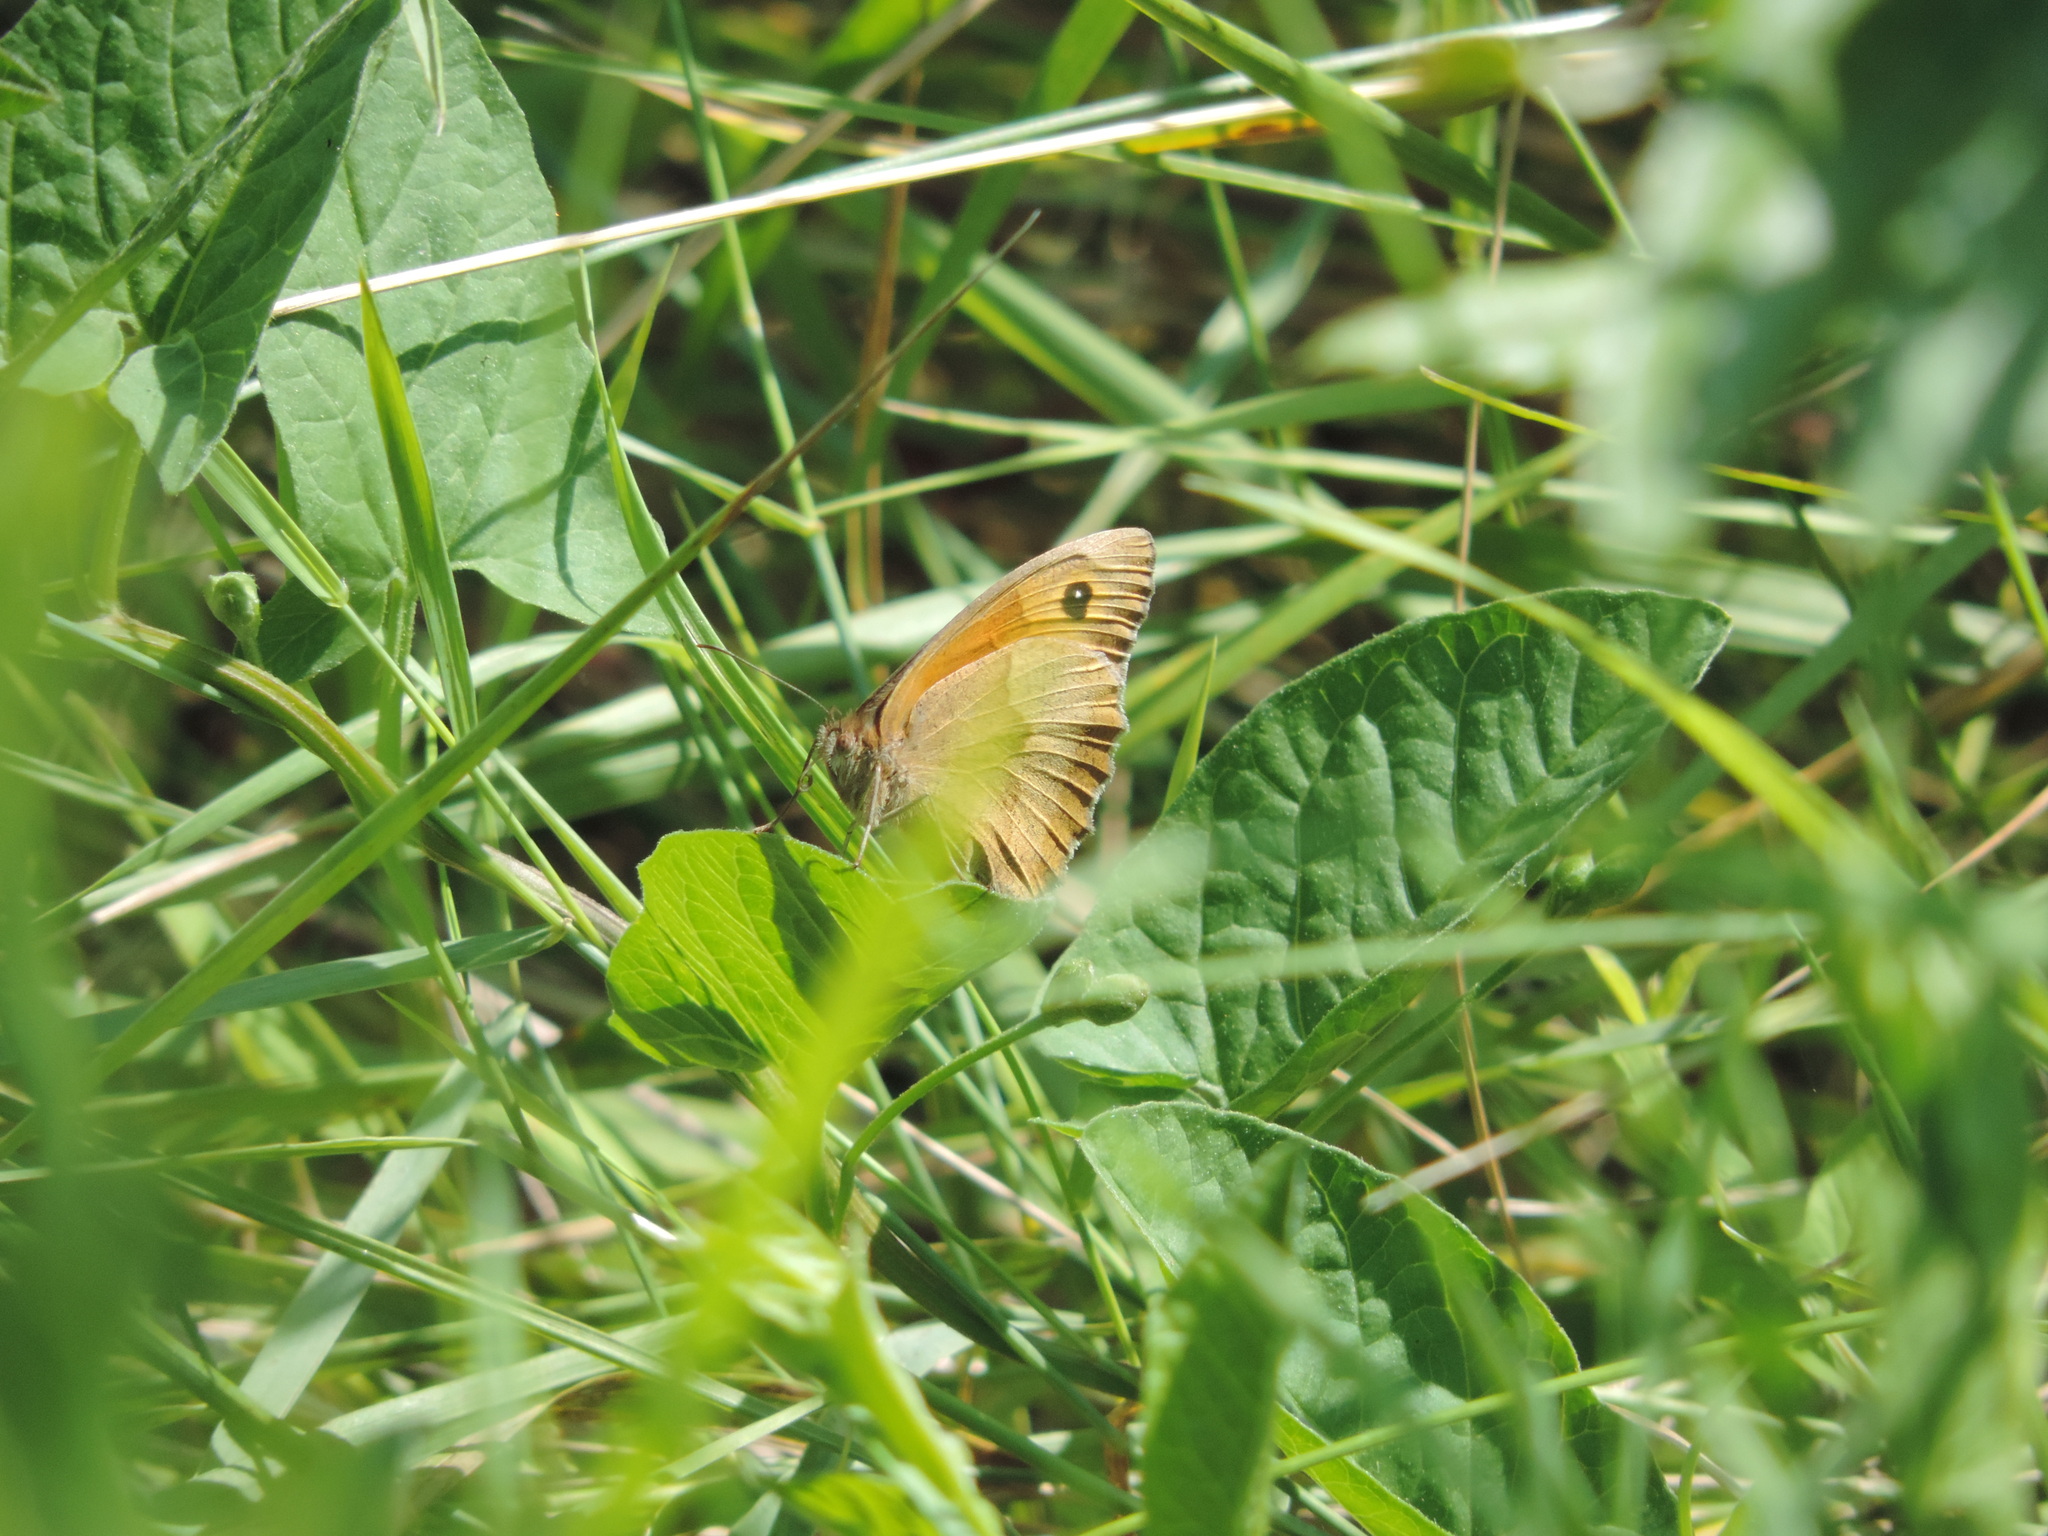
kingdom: Animalia
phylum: Arthropoda
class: Insecta
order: Lepidoptera
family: Nymphalidae
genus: Maniola
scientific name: Maniola jurtina
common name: Meadow brown
